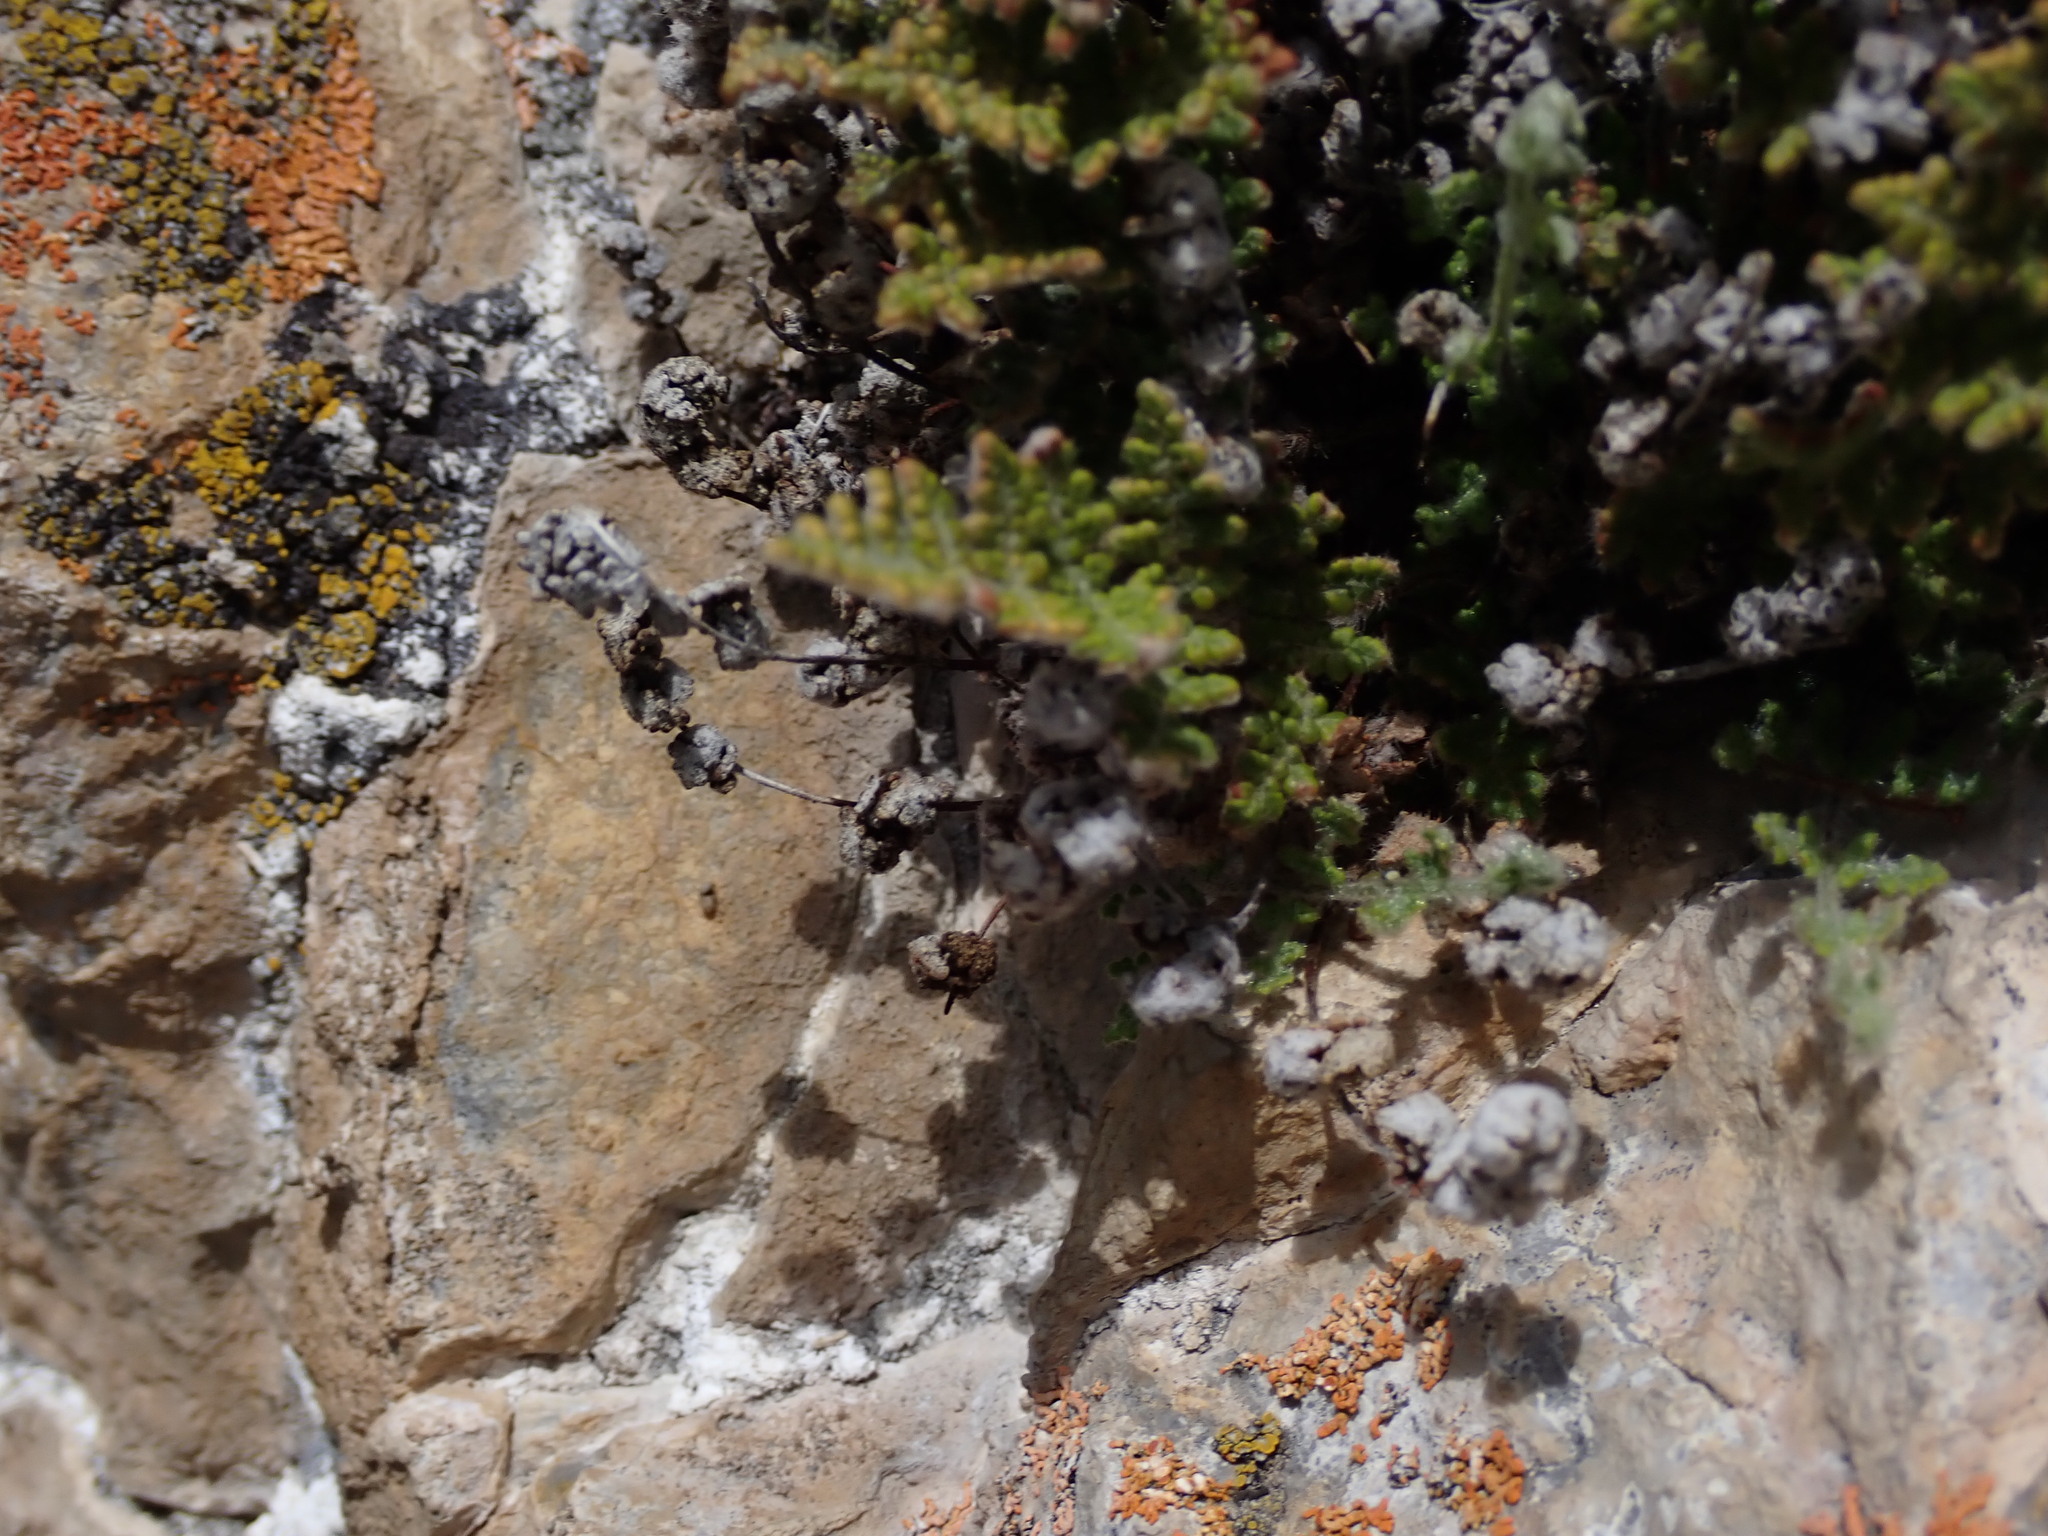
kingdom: Plantae
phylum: Tracheophyta
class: Polypodiopsida
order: Polypodiales
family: Pteridaceae
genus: Myriopteris
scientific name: Myriopteris gracilis
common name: Fee's lip fern
